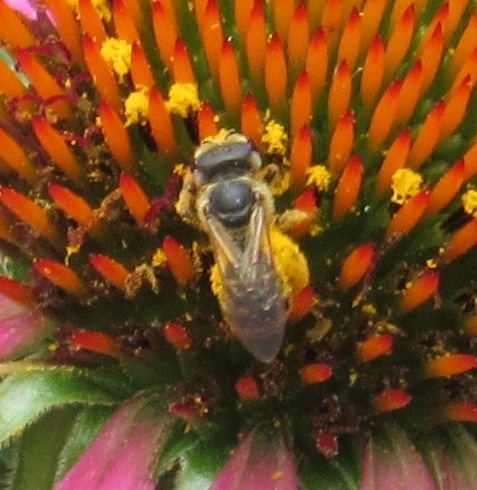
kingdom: Animalia
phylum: Arthropoda
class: Insecta
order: Hymenoptera
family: Halictidae
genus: Halictus
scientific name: Halictus ligatus
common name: Ligated furrow bee
